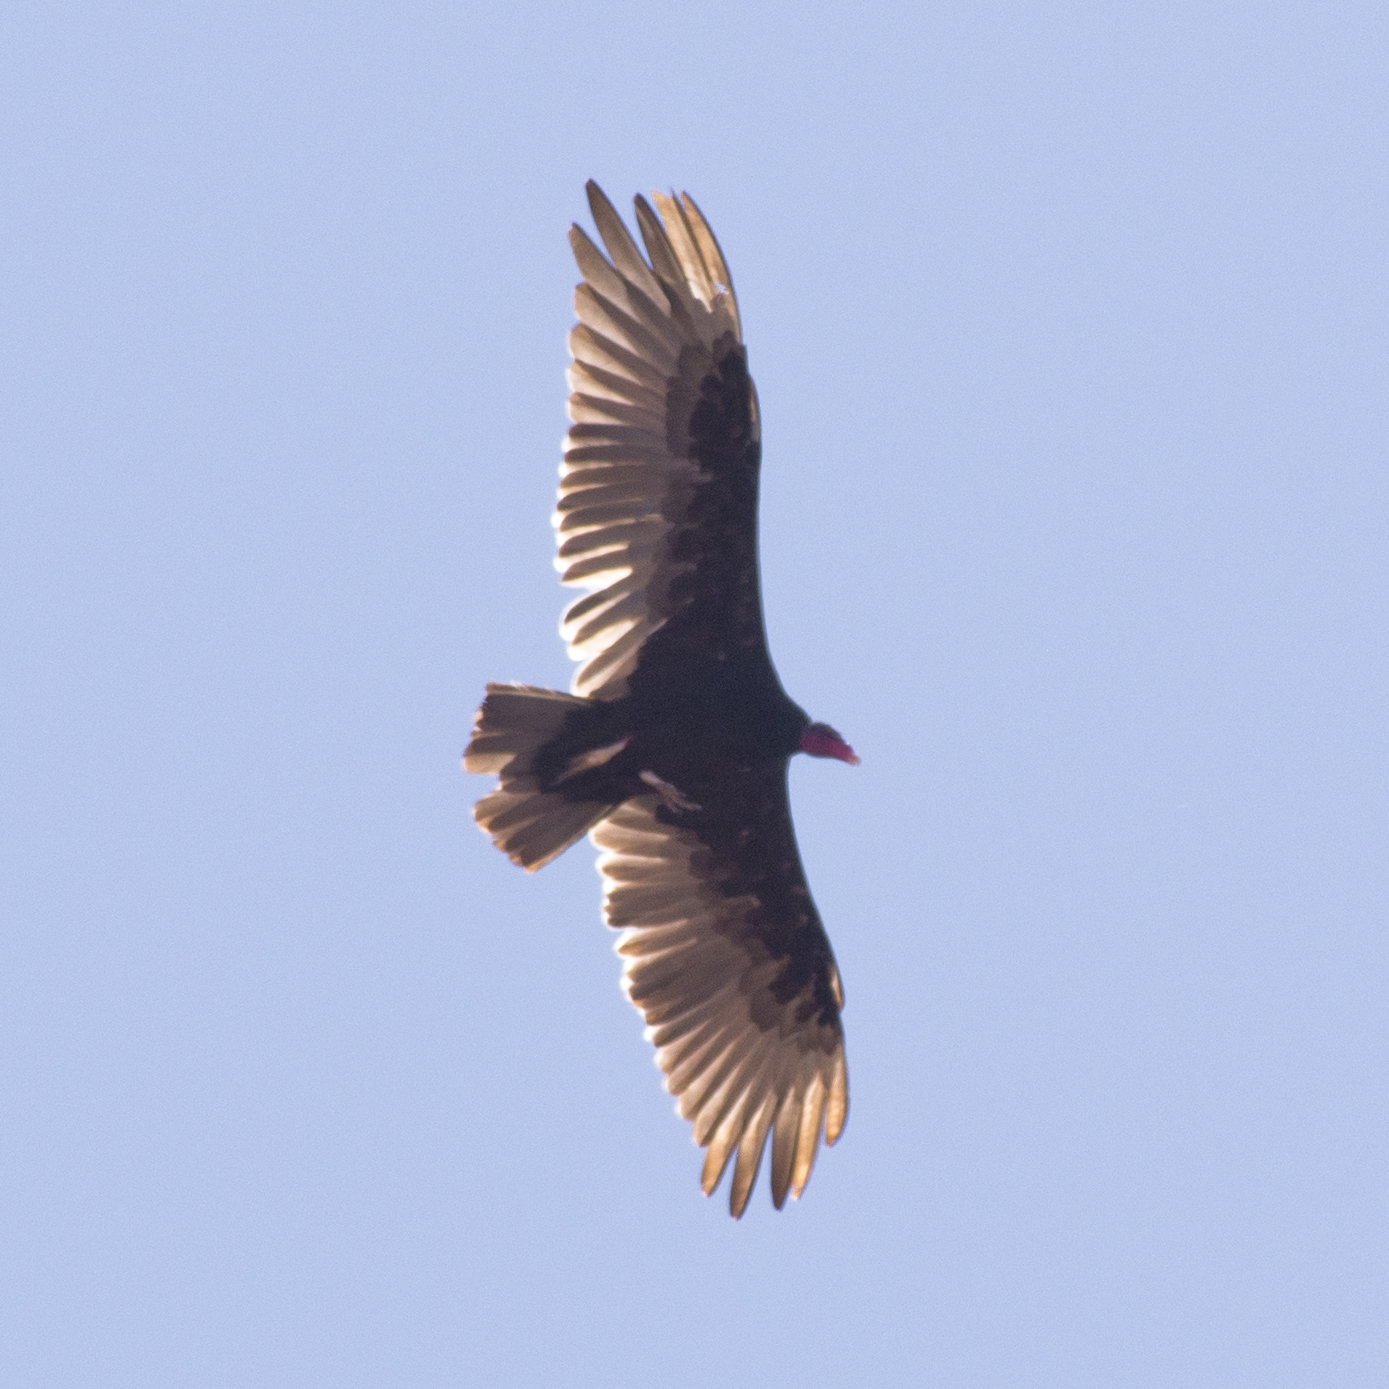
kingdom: Animalia
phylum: Chordata
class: Aves
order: Accipitriformes
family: Cathartidae
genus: Cathartes
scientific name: Cathartes aura
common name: Turkey vulture
